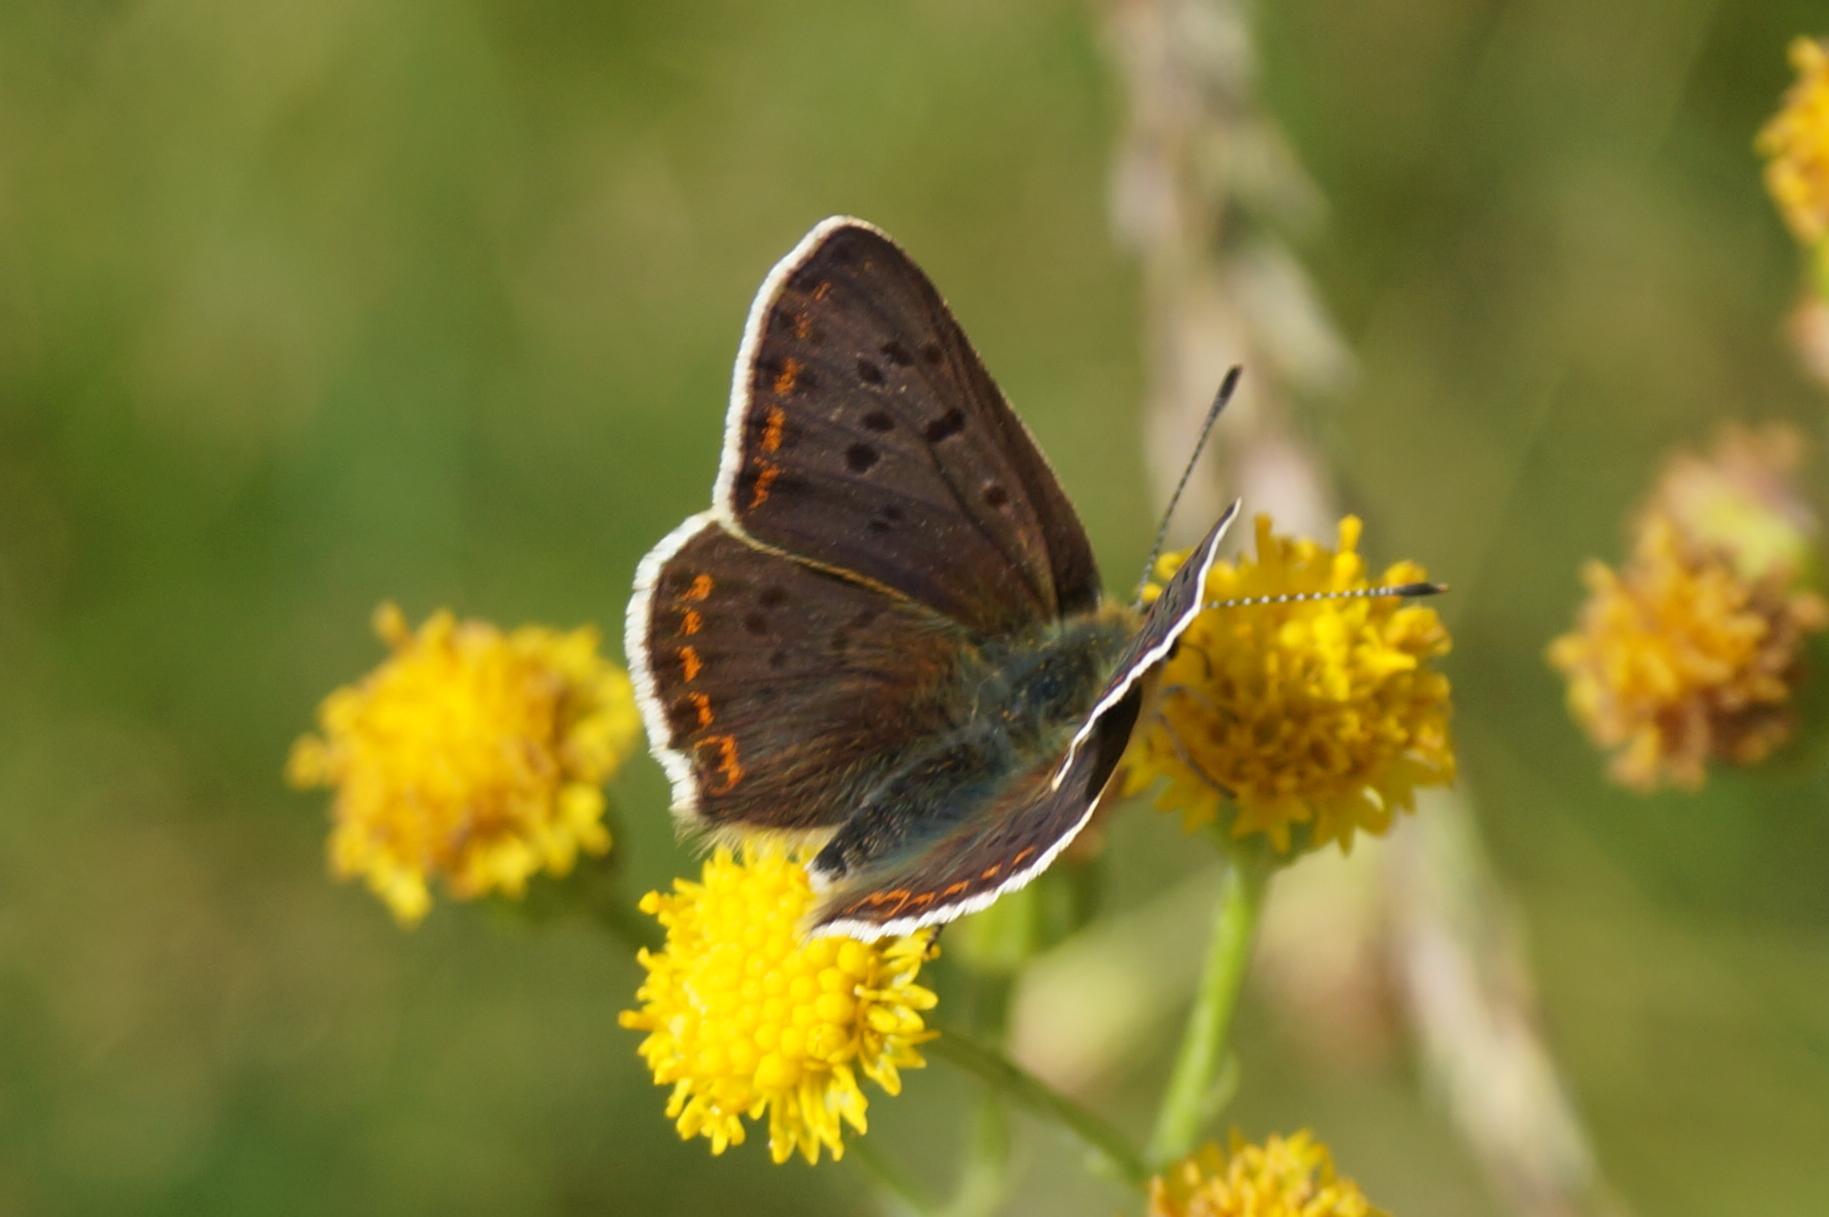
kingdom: Animalia
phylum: Arthropoda
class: Insecta
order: Lepidoptera
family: Lycaenidae
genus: Loweia
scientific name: Loweia tityrus
